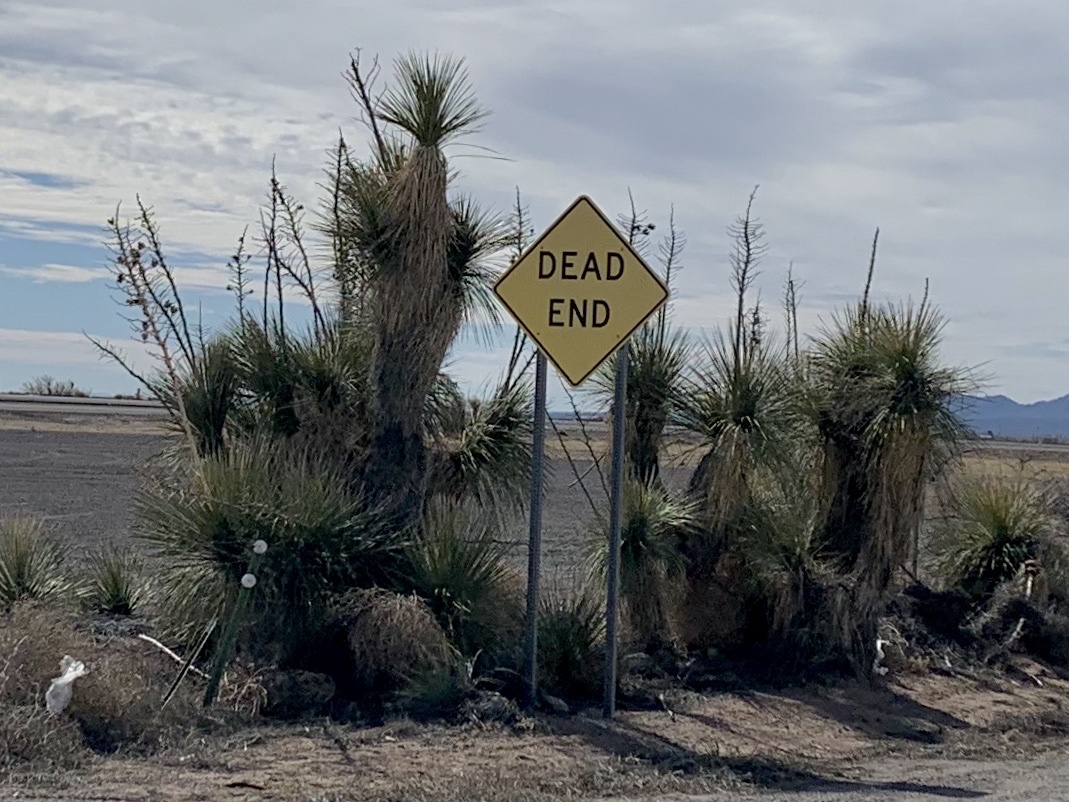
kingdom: Plantae
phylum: Tracheophyta
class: Liliopsida
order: Asparagales
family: Asparagaceae
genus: Yucca
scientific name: Yucca elata
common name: Palmella
